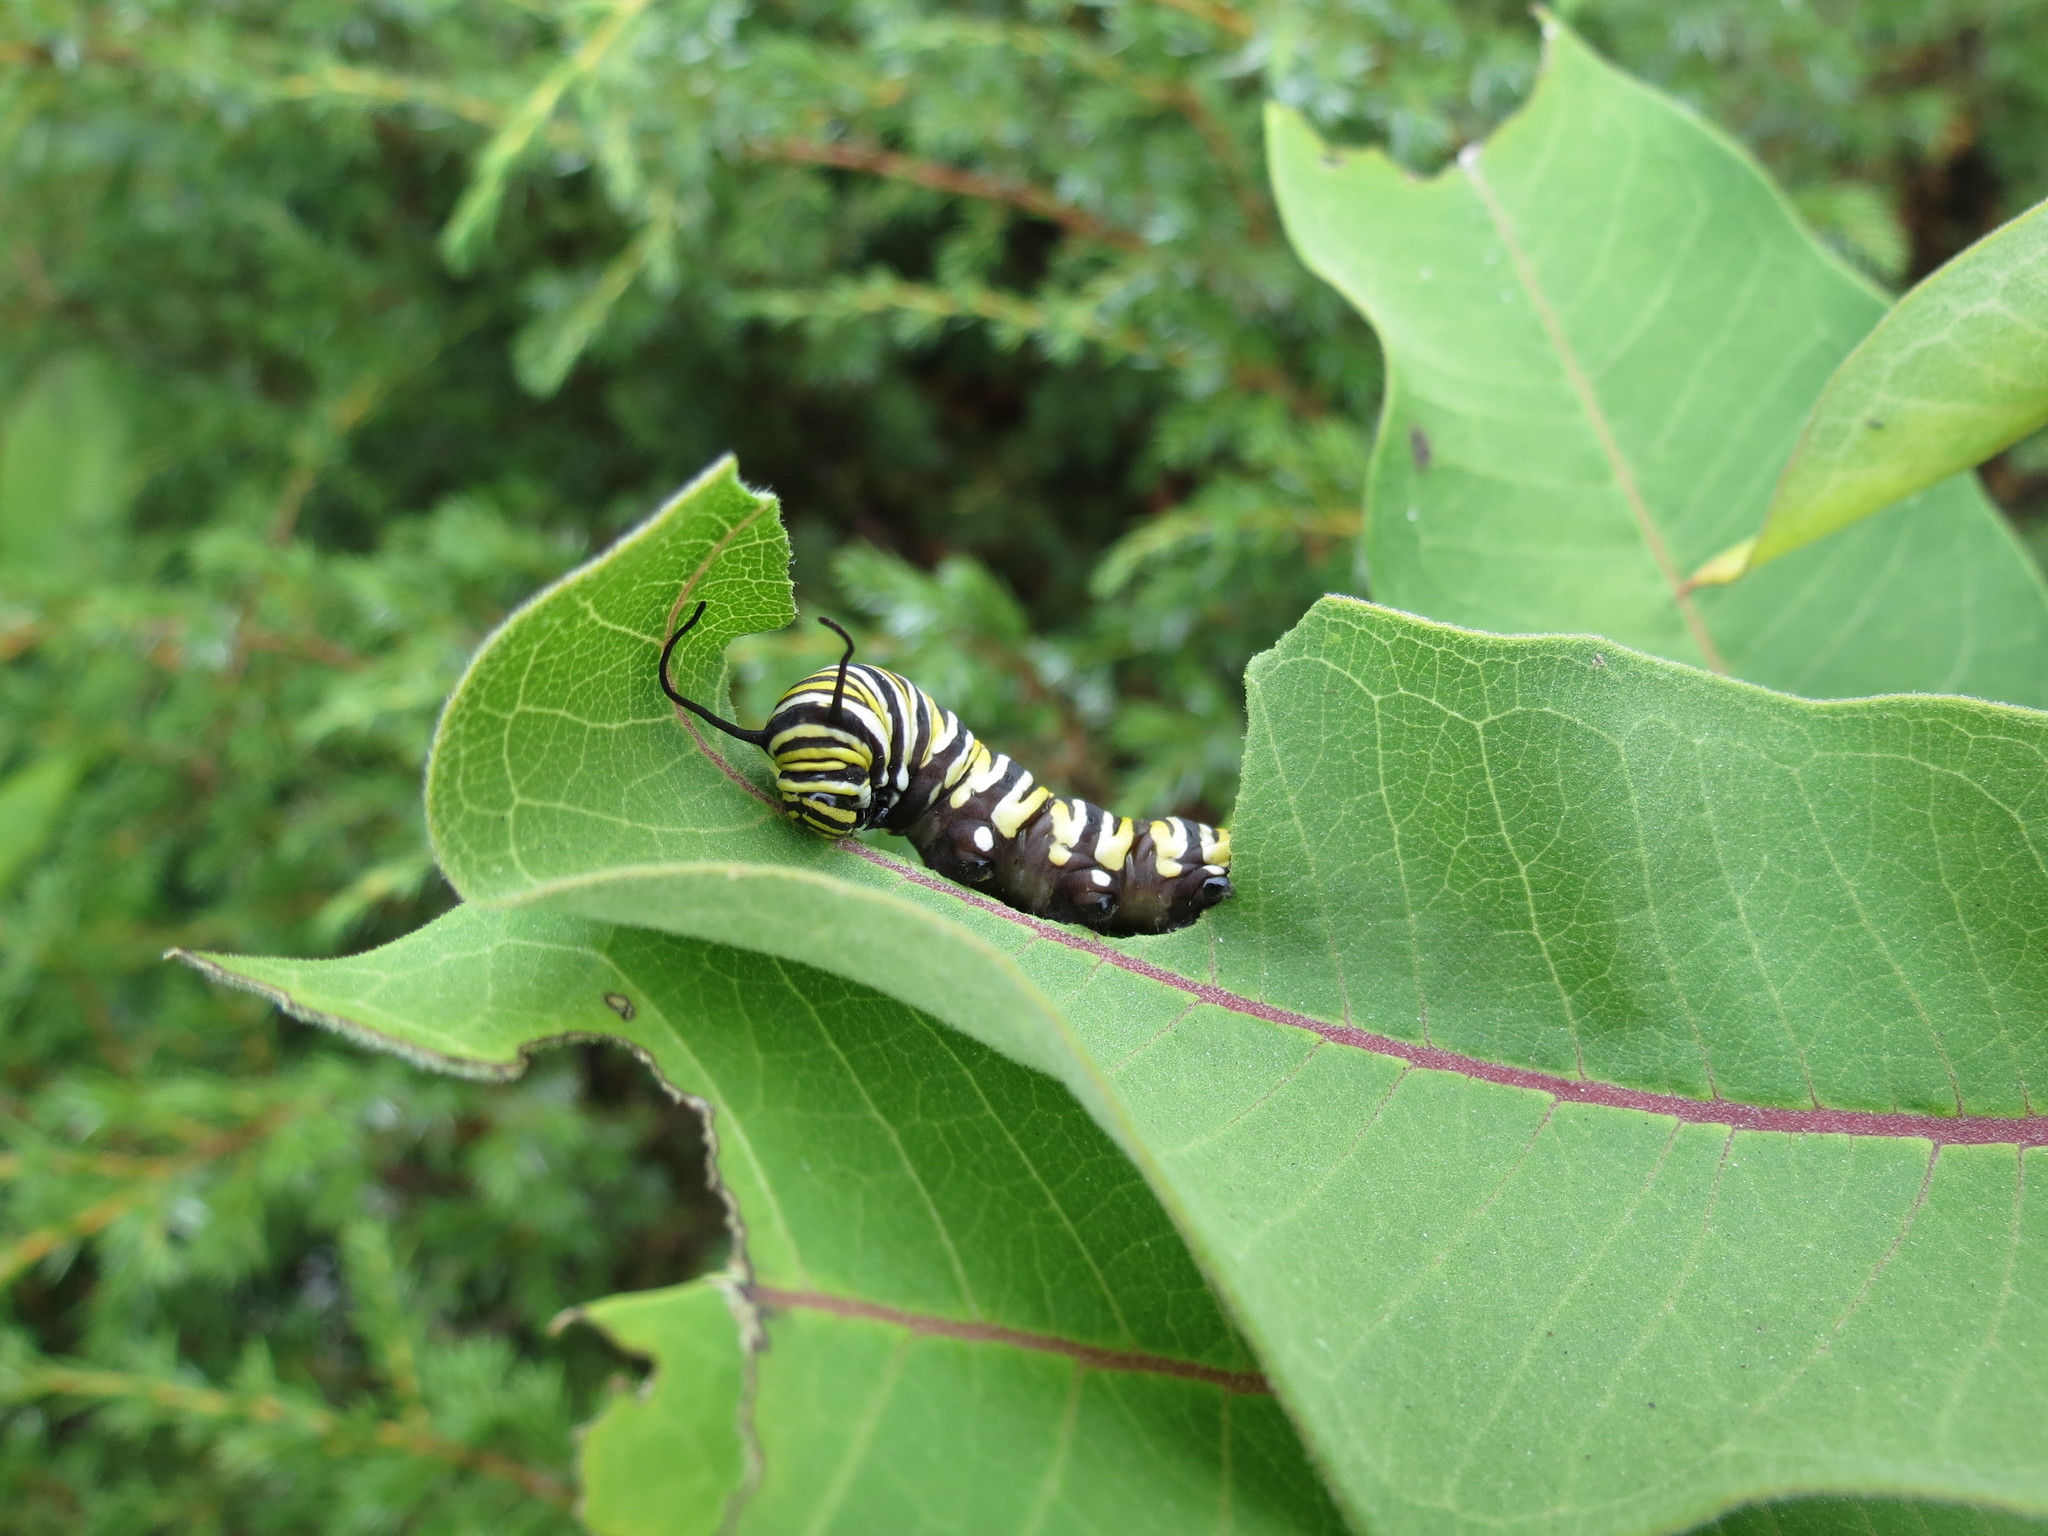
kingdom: Animalia
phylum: Arthropoda
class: Insecta
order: Lepidoptera
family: Nymphalidae
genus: Danaus
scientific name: Danaus plexippus
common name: Monarch
